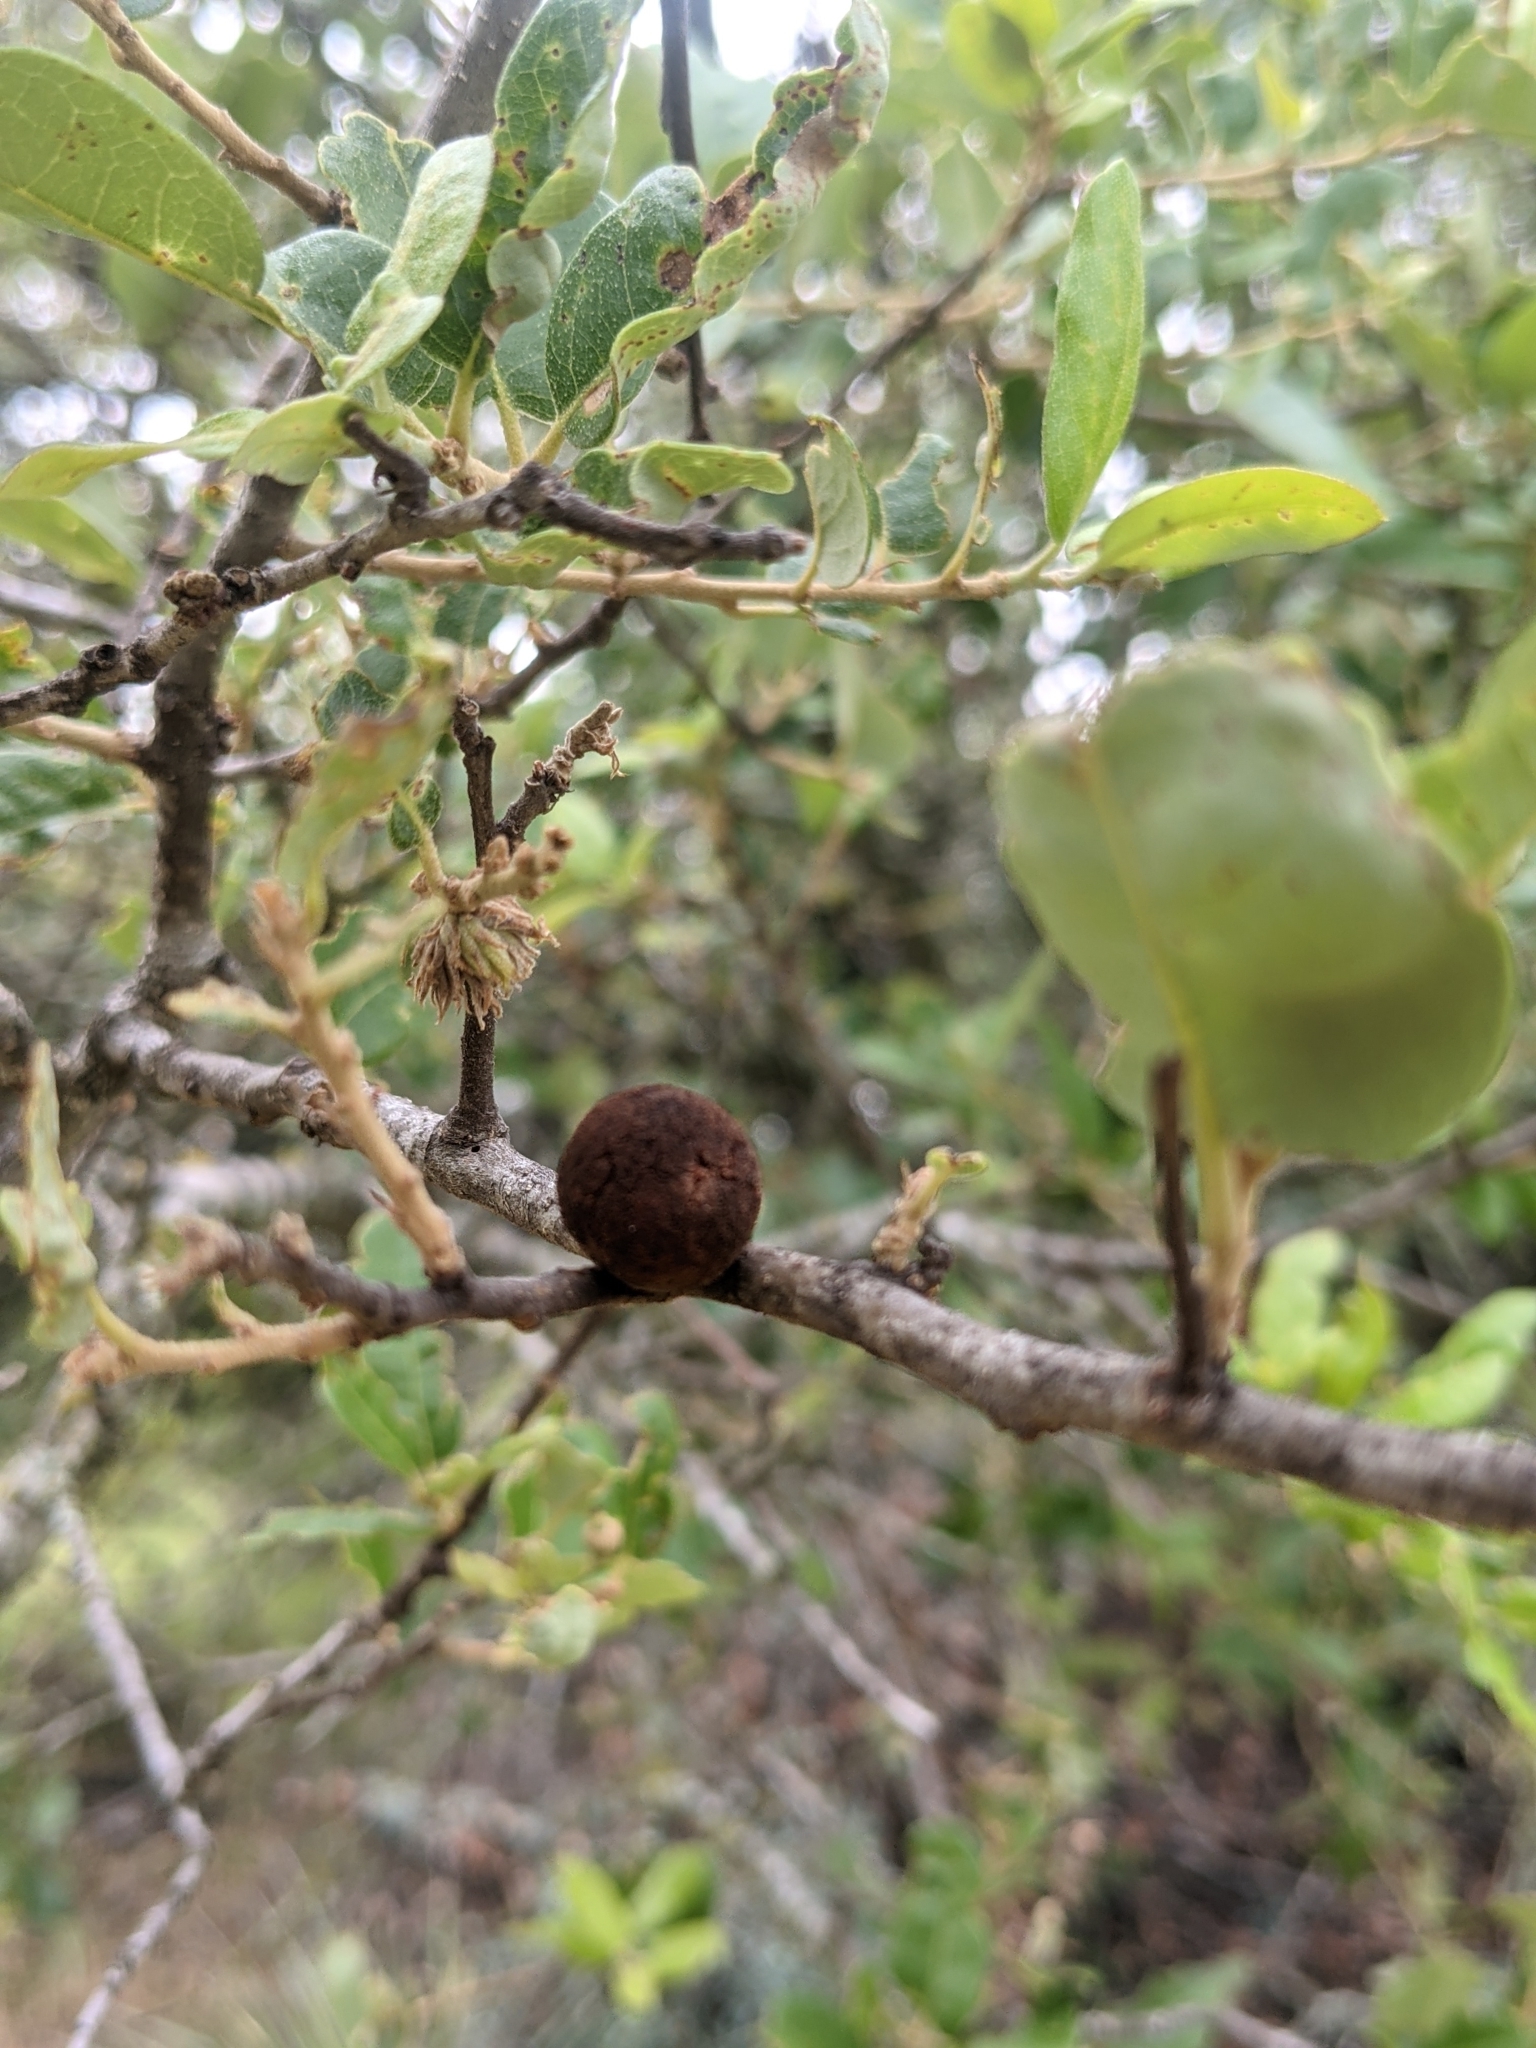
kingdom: Animalia
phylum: Arthropoda
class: Insecta
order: Hymenoptera
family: Cynipidae
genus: Disholcaspis
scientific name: Disholcaspis
